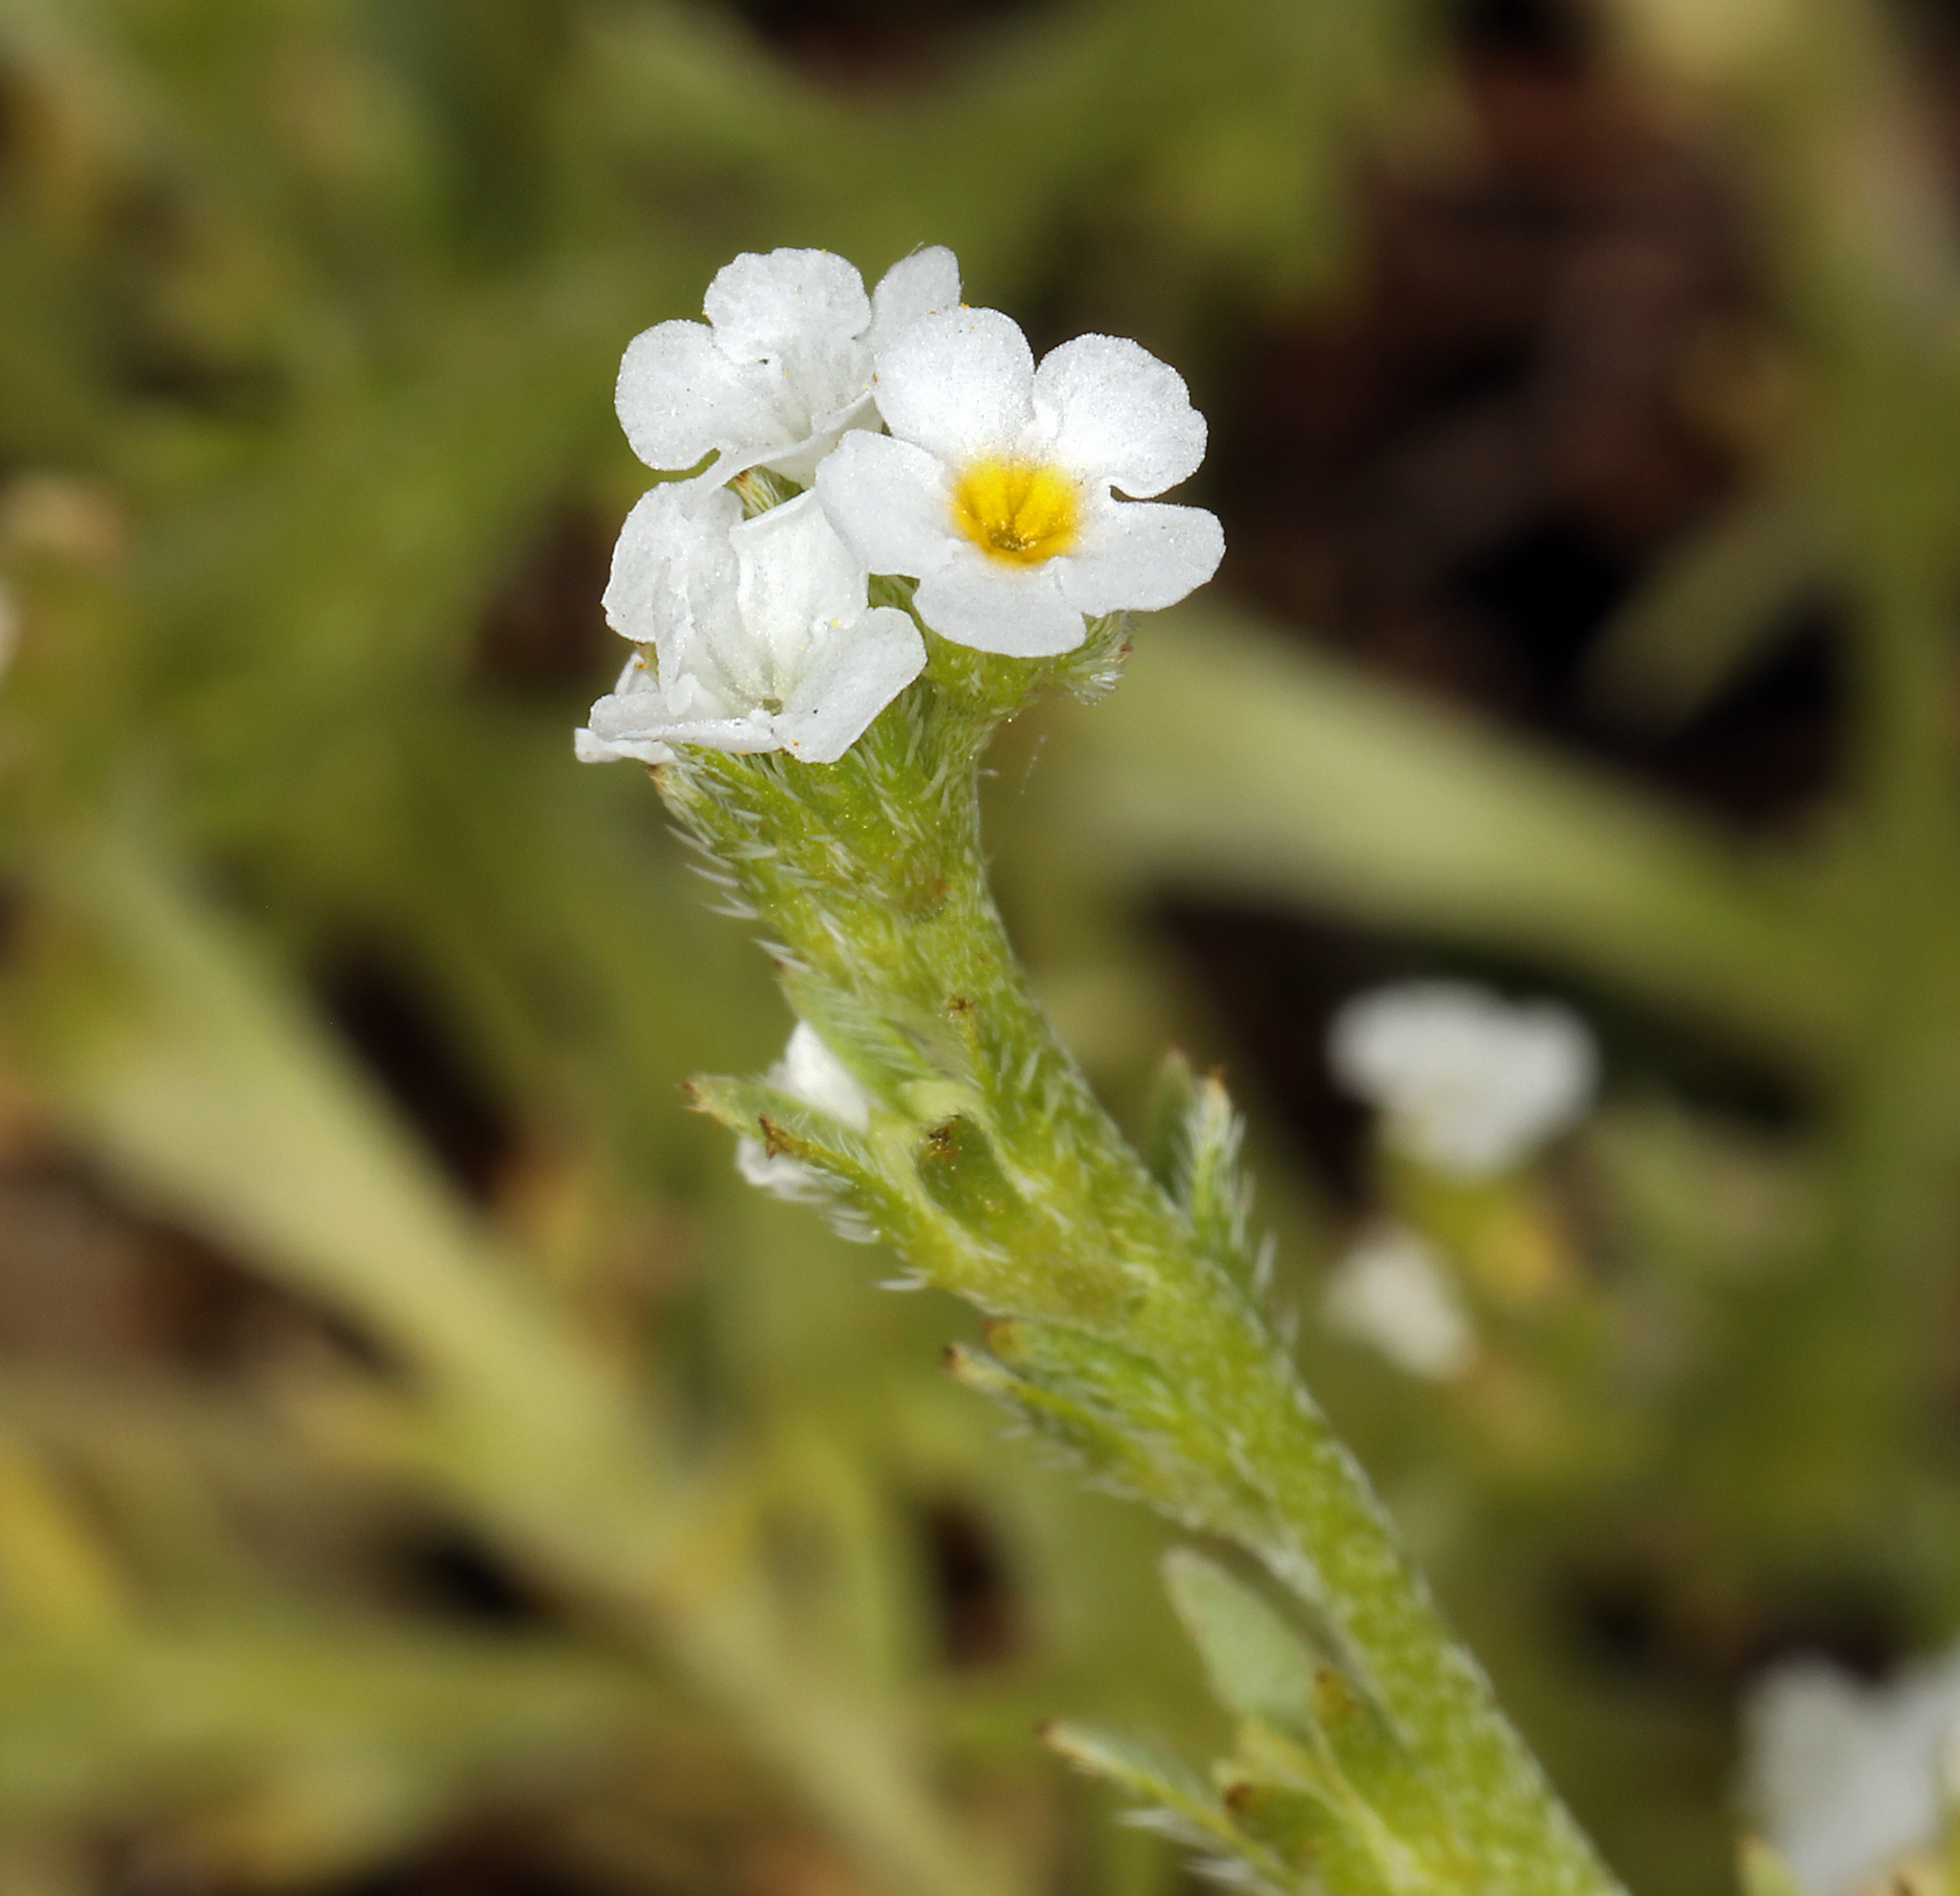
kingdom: Plantae
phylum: Tracheophyta
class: Magnoliopsida
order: Boraginales
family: Boraginaceae
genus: Plagiobothrys
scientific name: Plagiobothrys stipitatus
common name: Stipitate forget-me-not
